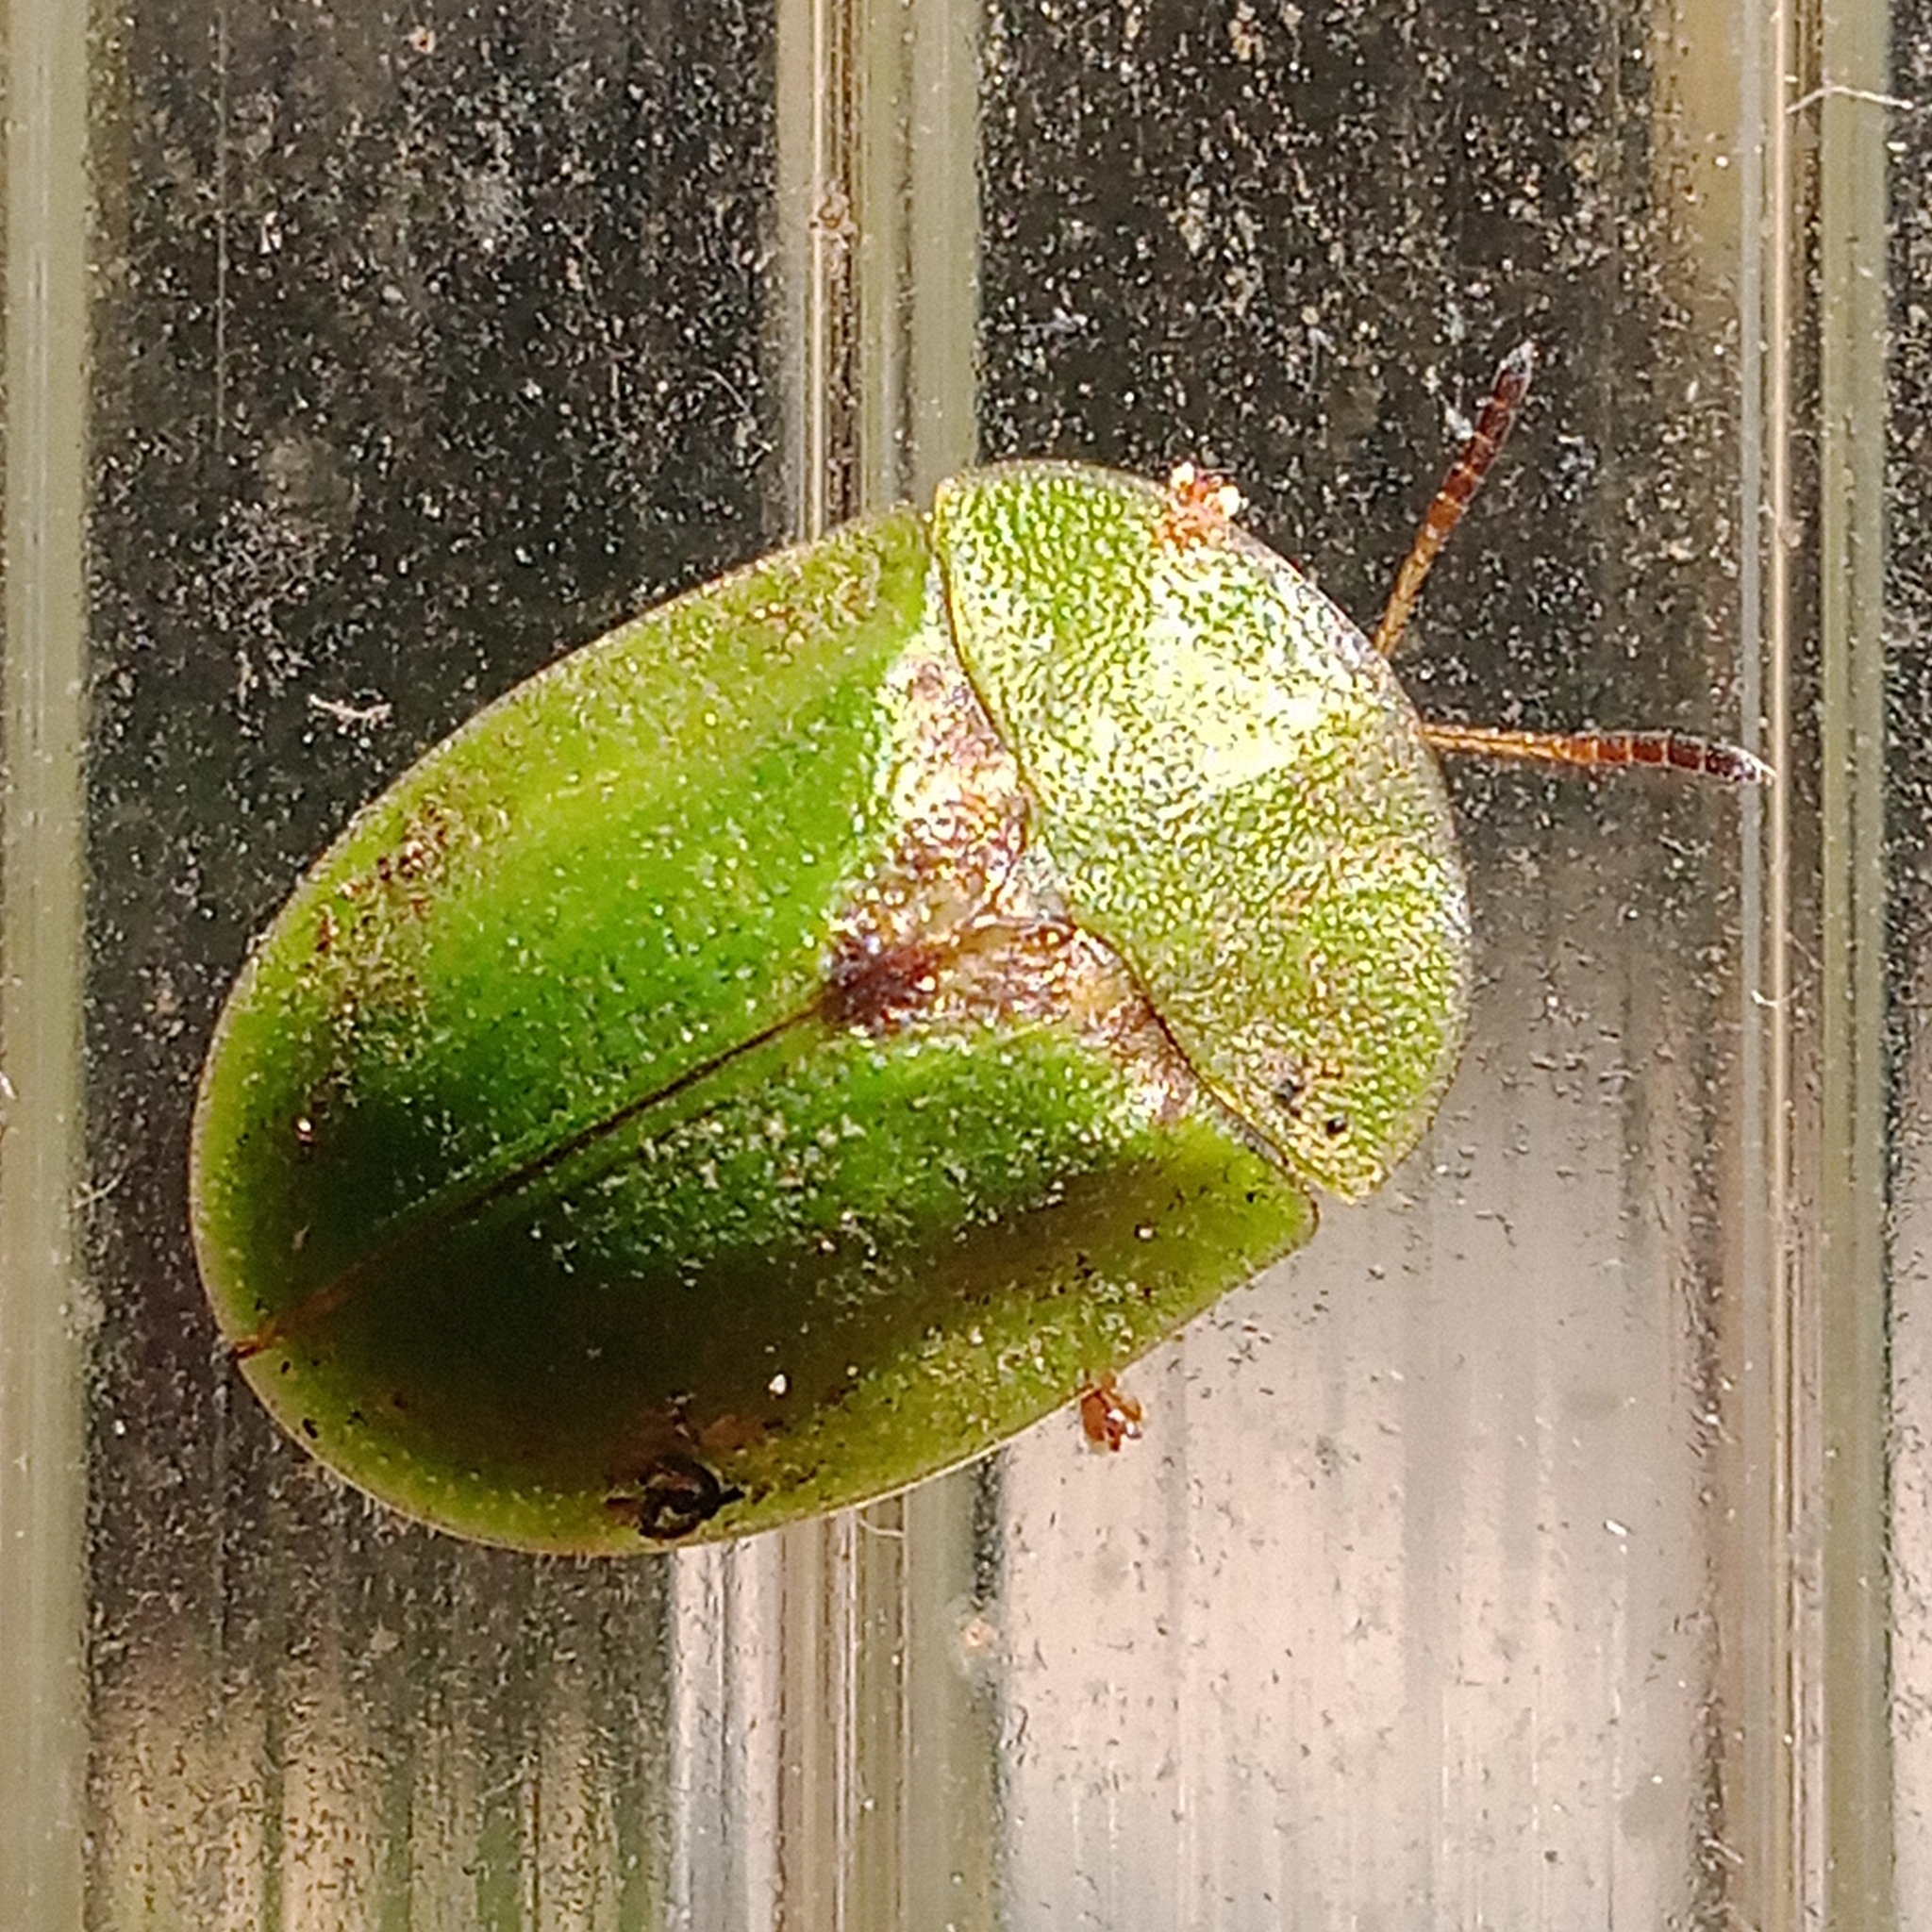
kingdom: Animalia
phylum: Arthropoda
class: Insecta
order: Coleoptera
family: Chrysomelidae
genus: Cassida
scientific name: Cassida rubiginosa
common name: Thistle tortoise beetle
